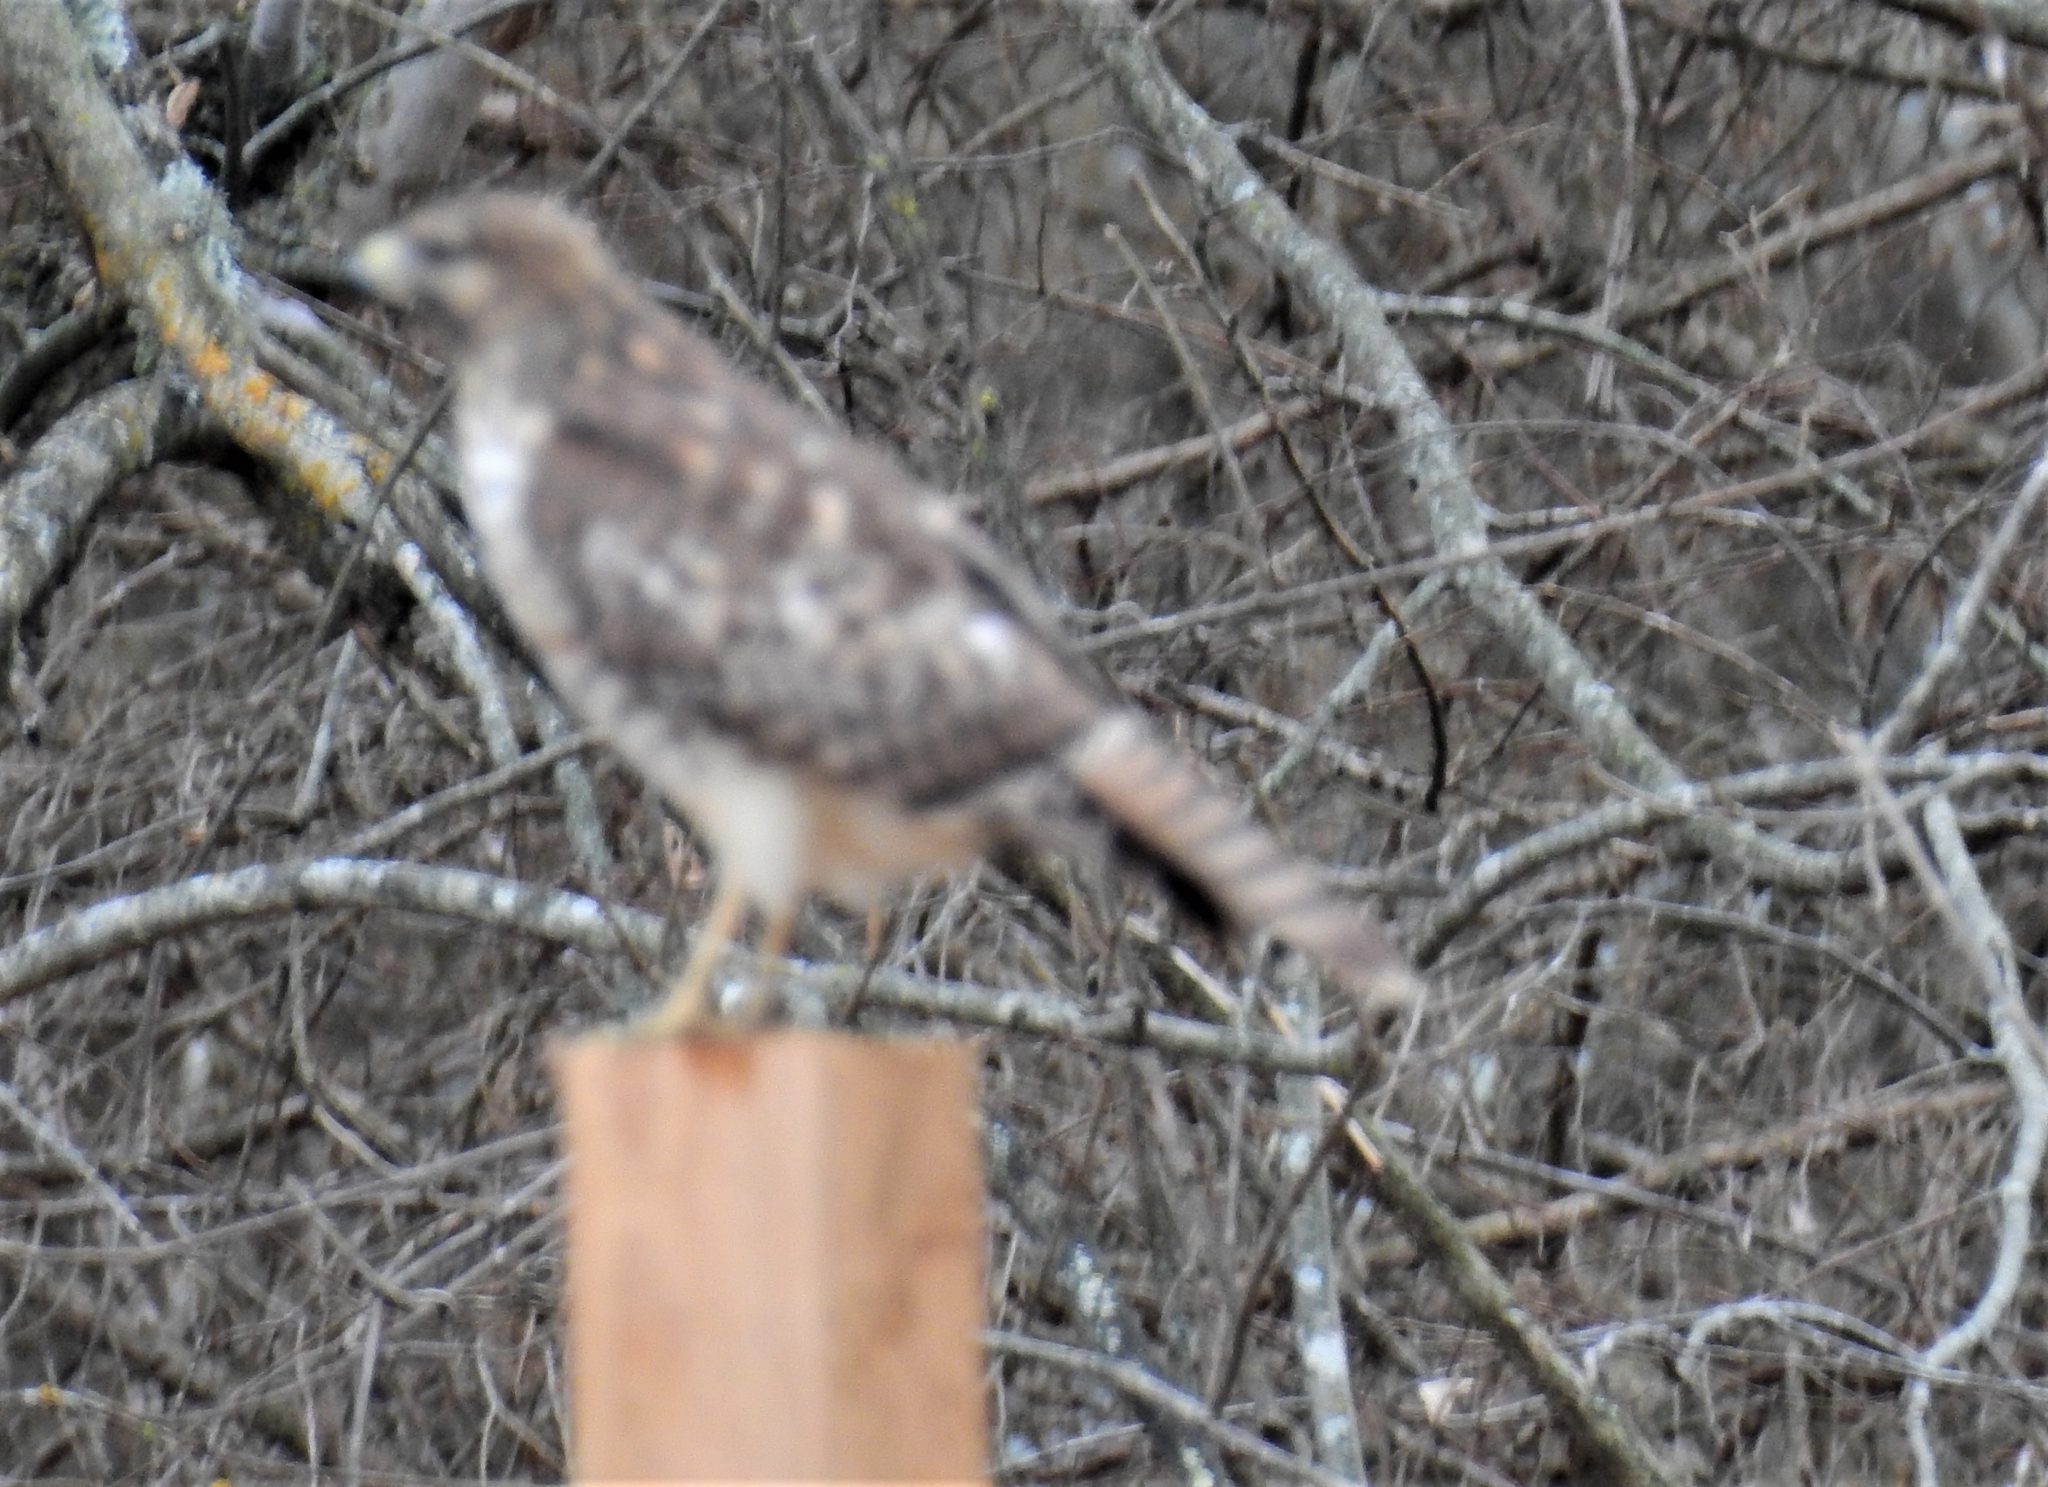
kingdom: Animalia
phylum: Chordata
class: Aves
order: Accipitriformes
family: Accipitridae
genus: Buteo
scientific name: Buteo jamaicensis
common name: Red-tailed hawk
